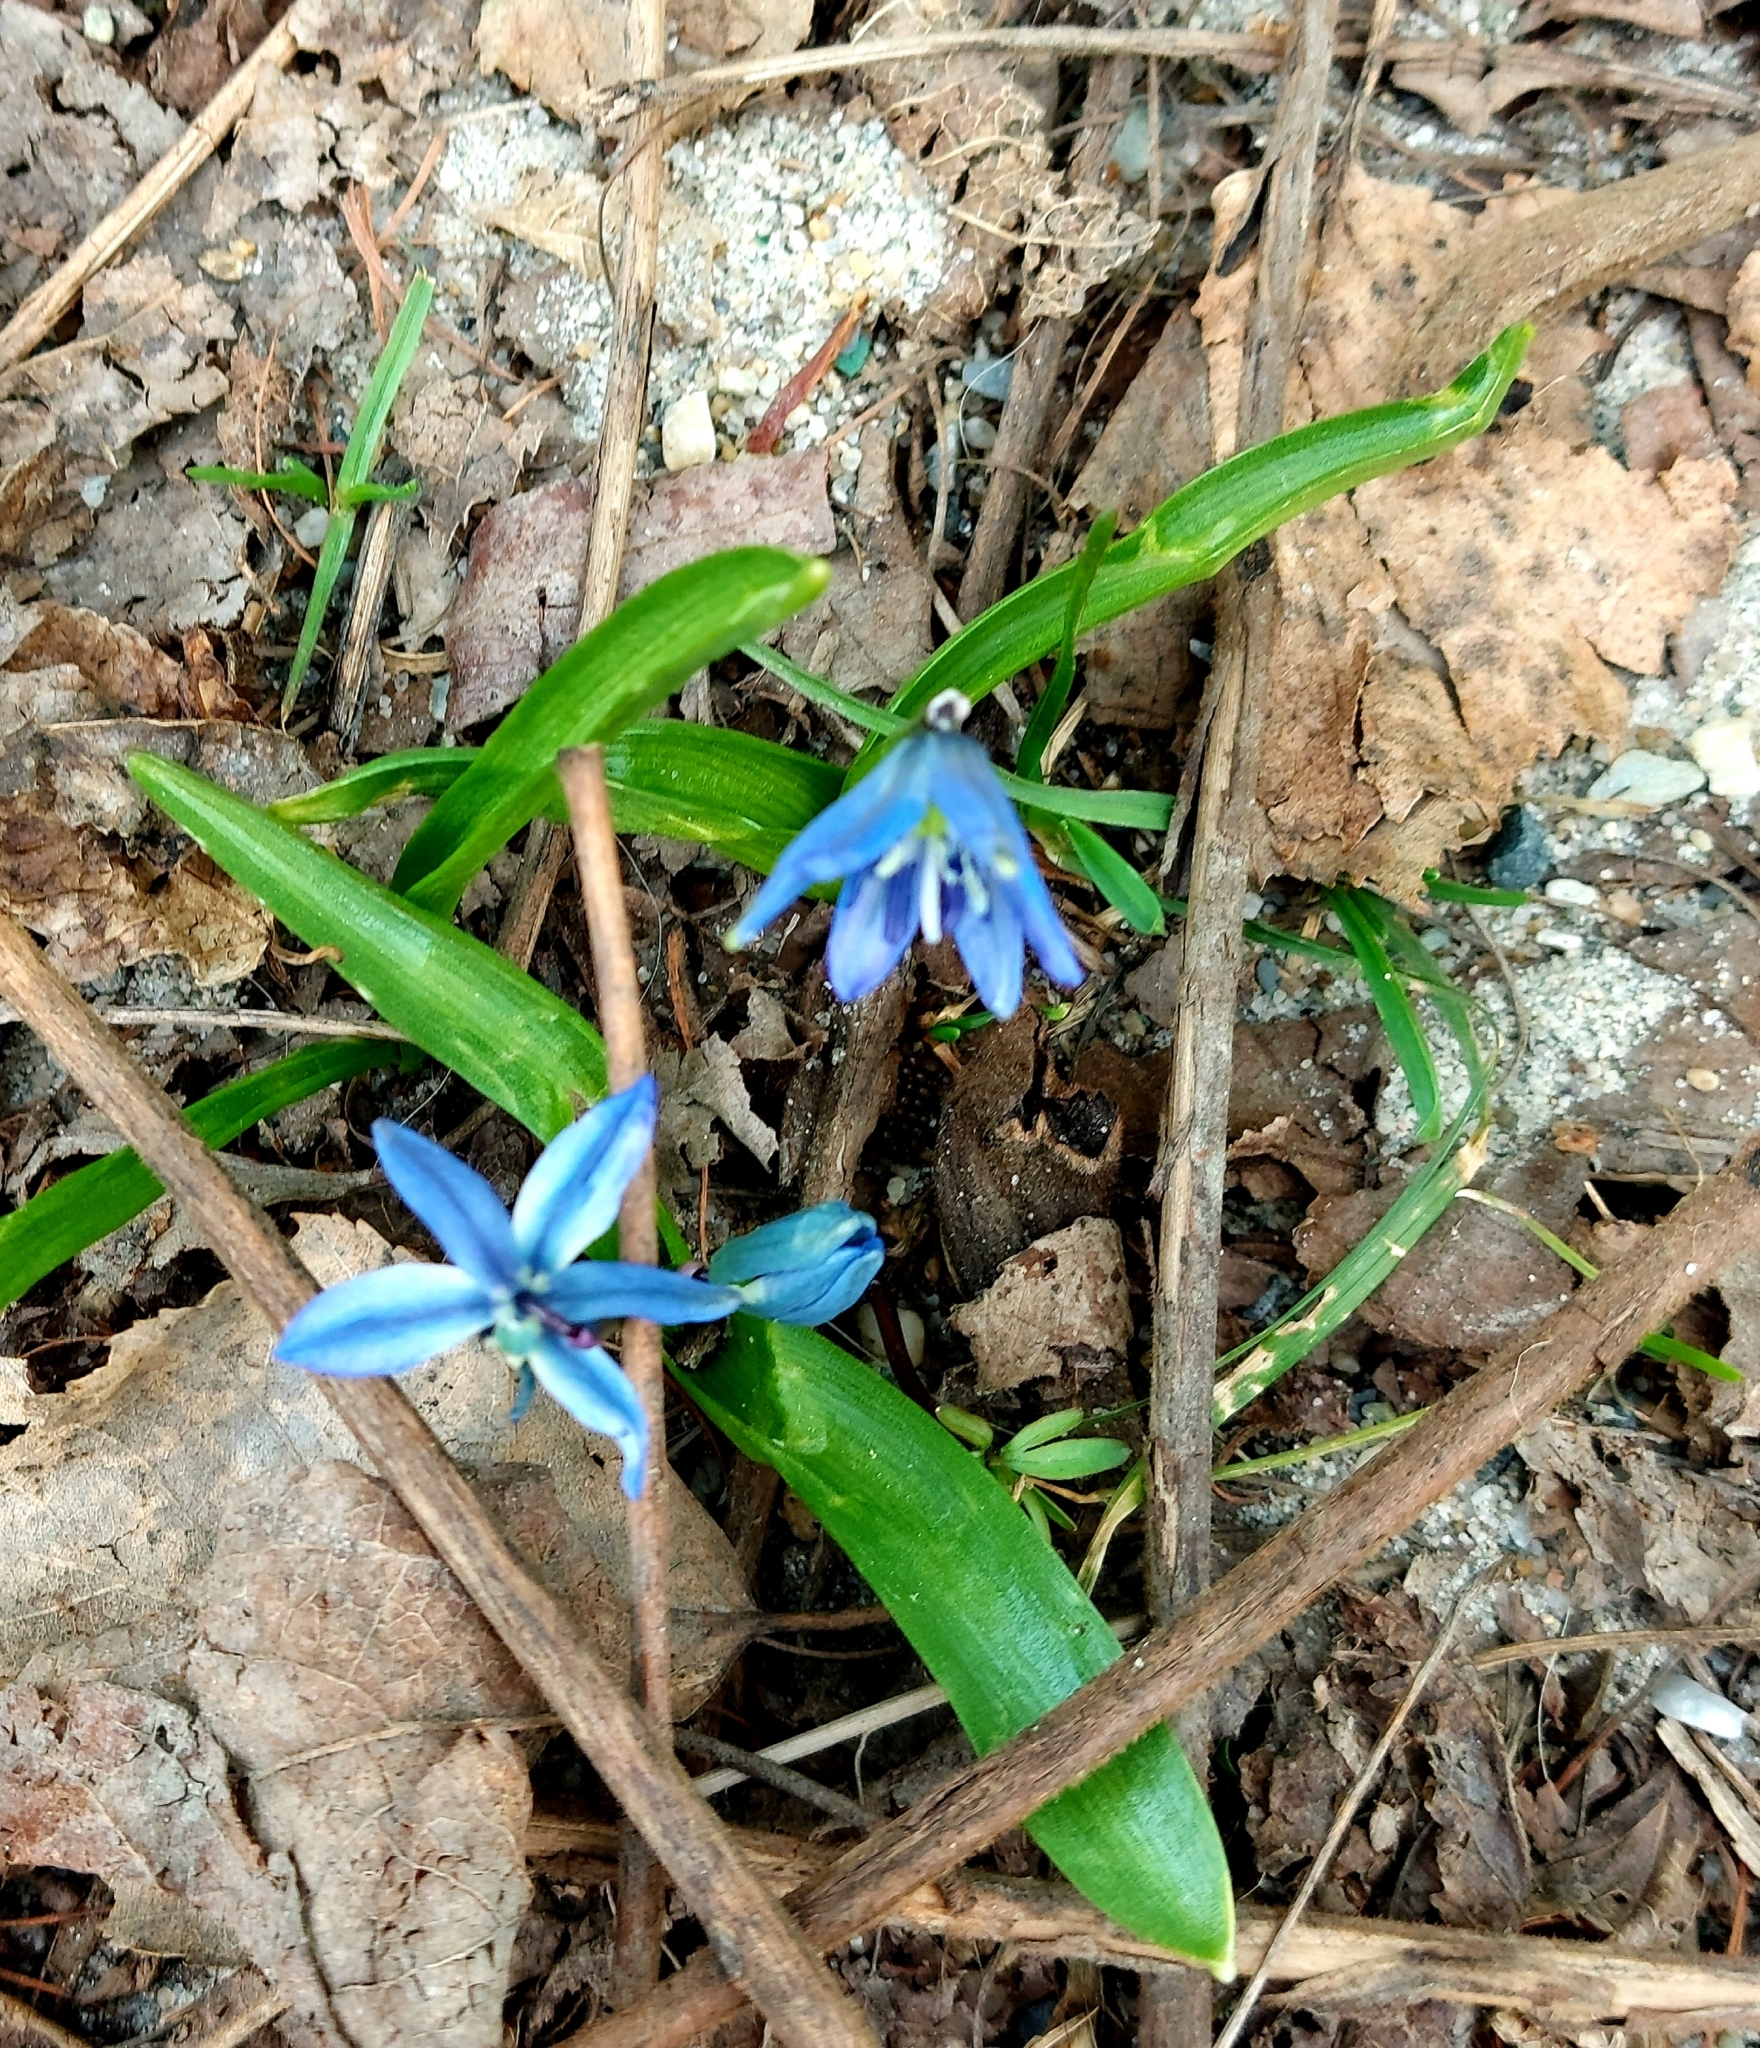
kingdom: Plantae
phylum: Tracheophyta
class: Liliopsida
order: Asparagales
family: Asparagaceae
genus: Scilla
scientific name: Scilla siberica
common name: Siberian squill
